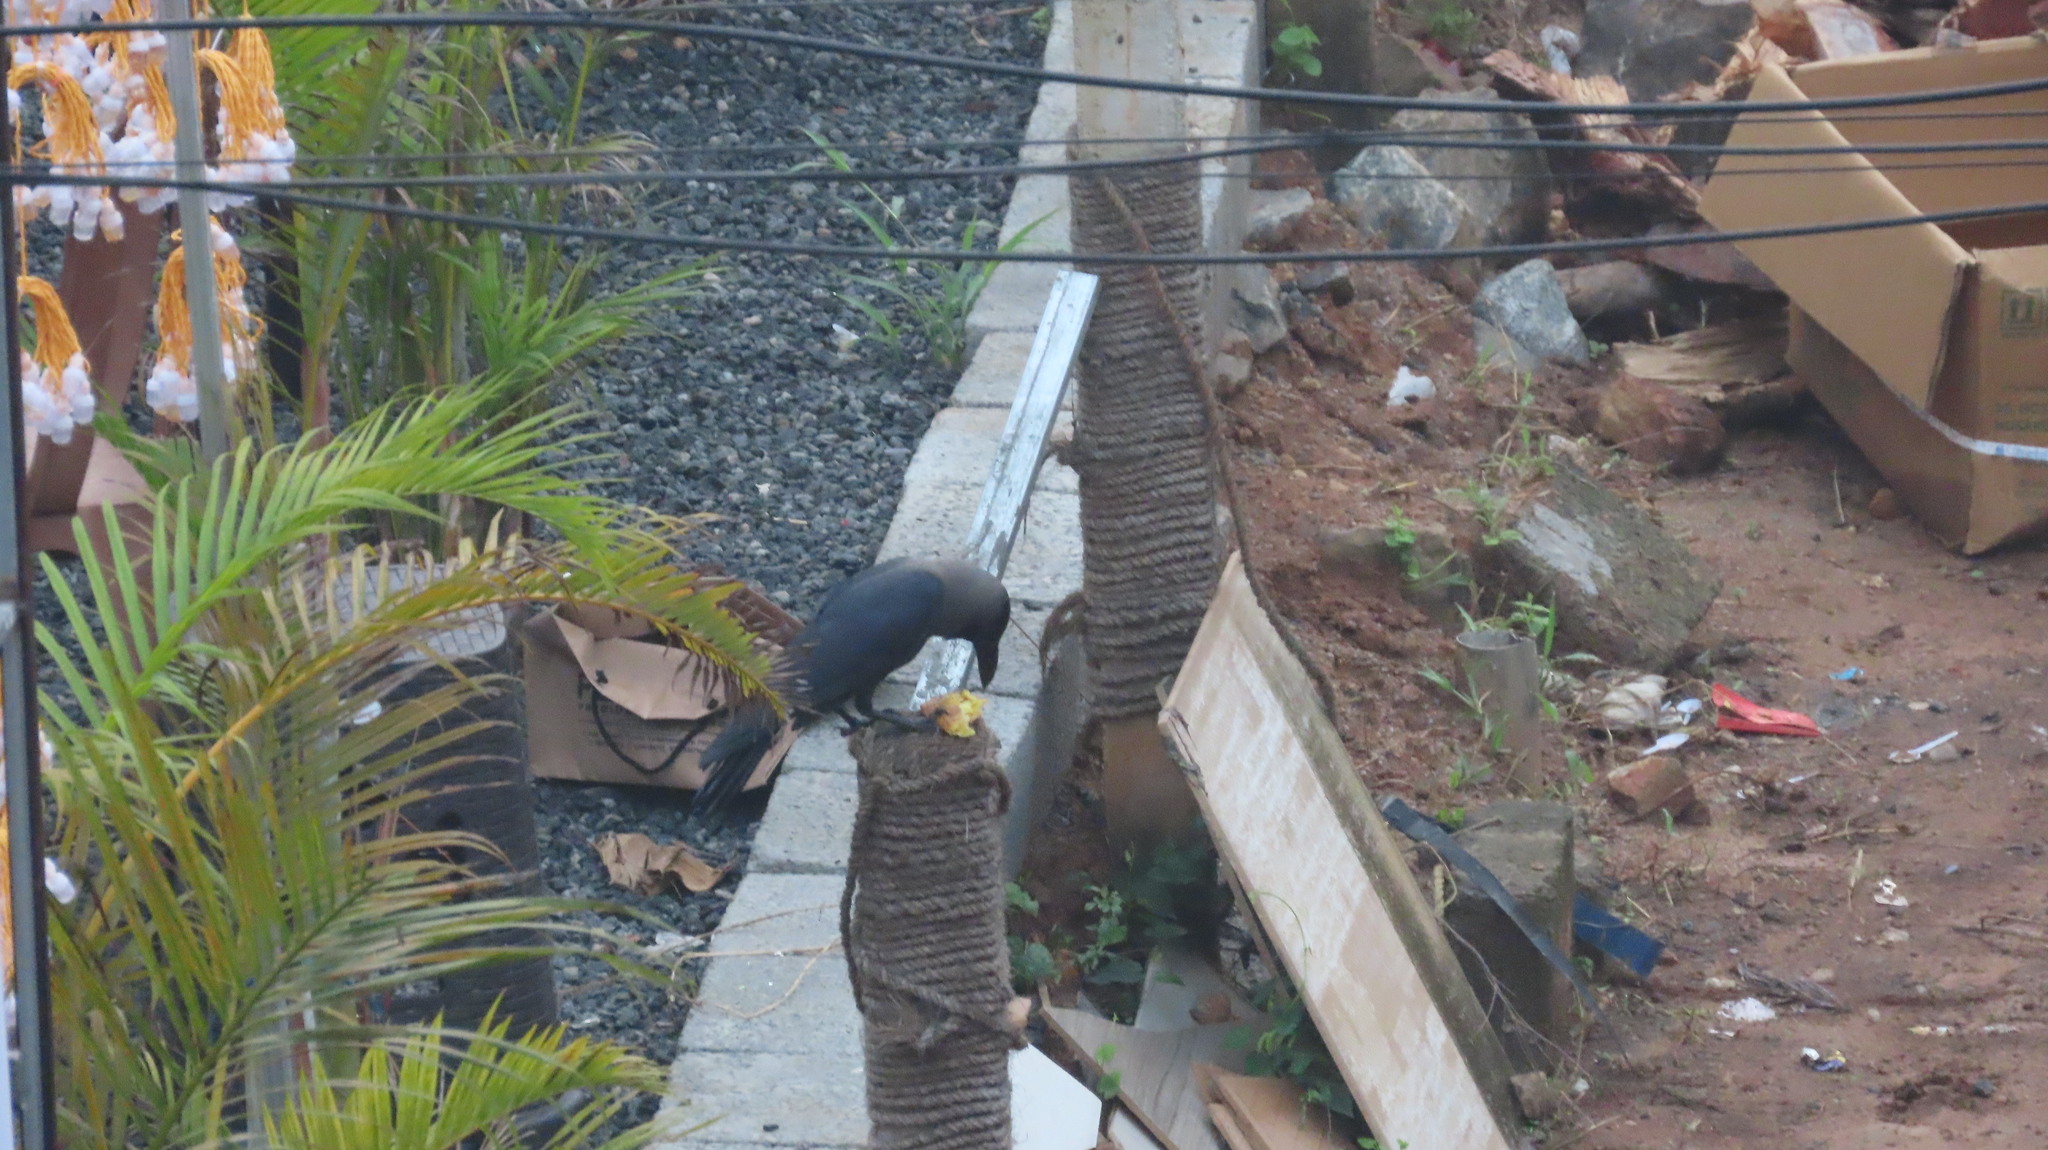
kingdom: Animalia
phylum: Chordata
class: Aves
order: Passeriformes
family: Corvidae
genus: Corvus
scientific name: Corvus splendens
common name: House crow
